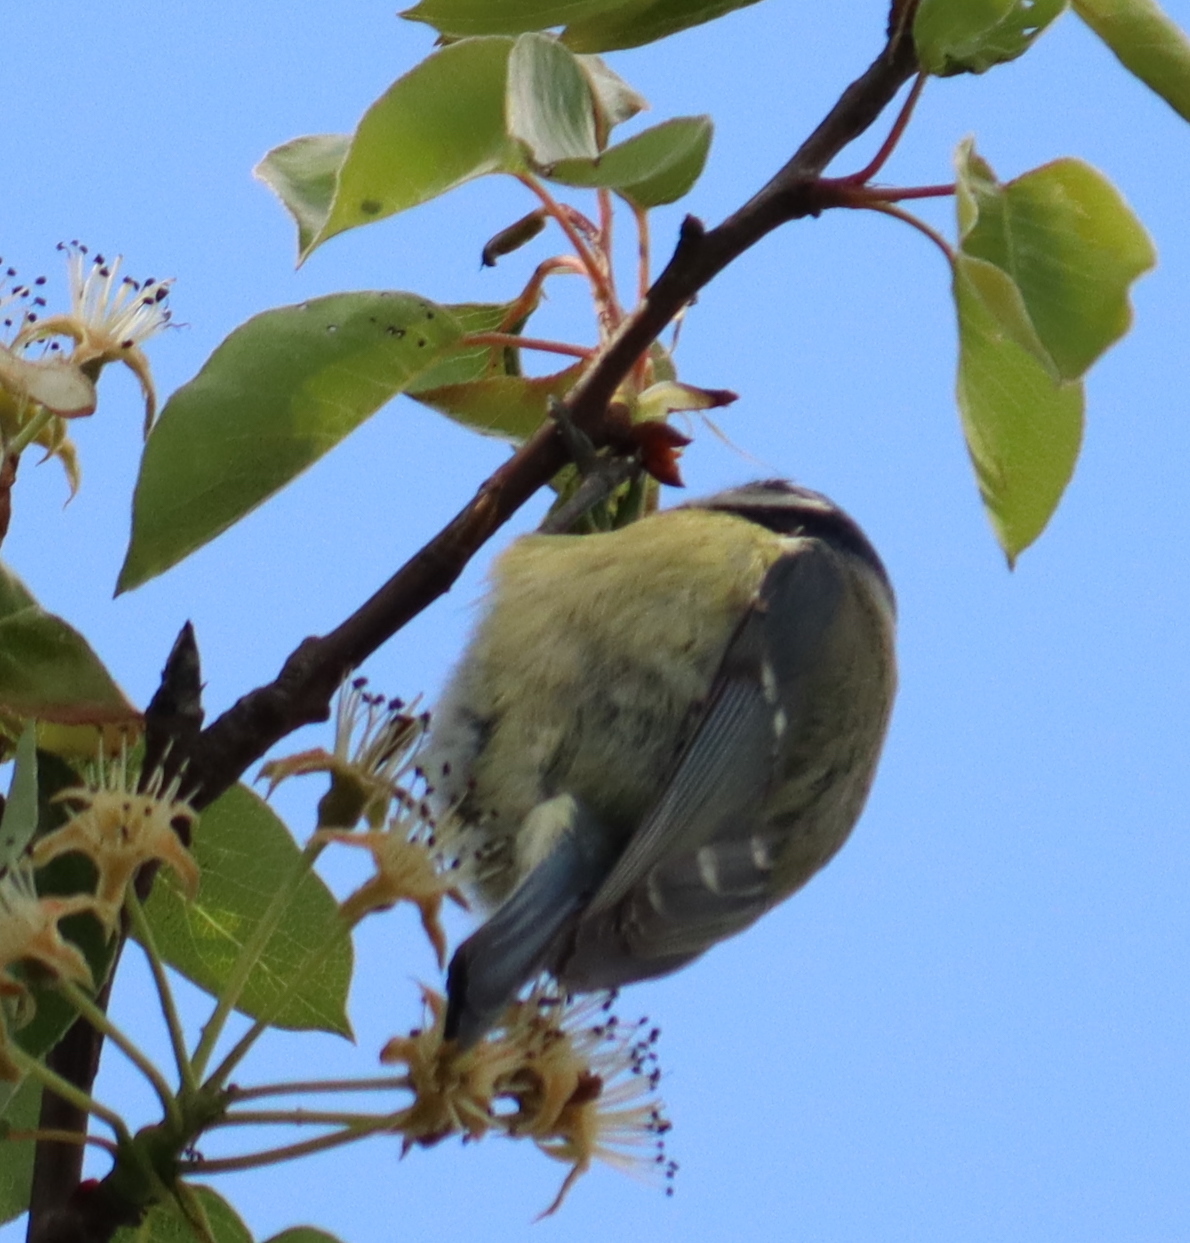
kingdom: Animalia
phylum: Chordata
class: Aves
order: Passeriformes
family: Paridae
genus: Cyanistes
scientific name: Cyanistes caeruleus
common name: Eurasian blue tit
